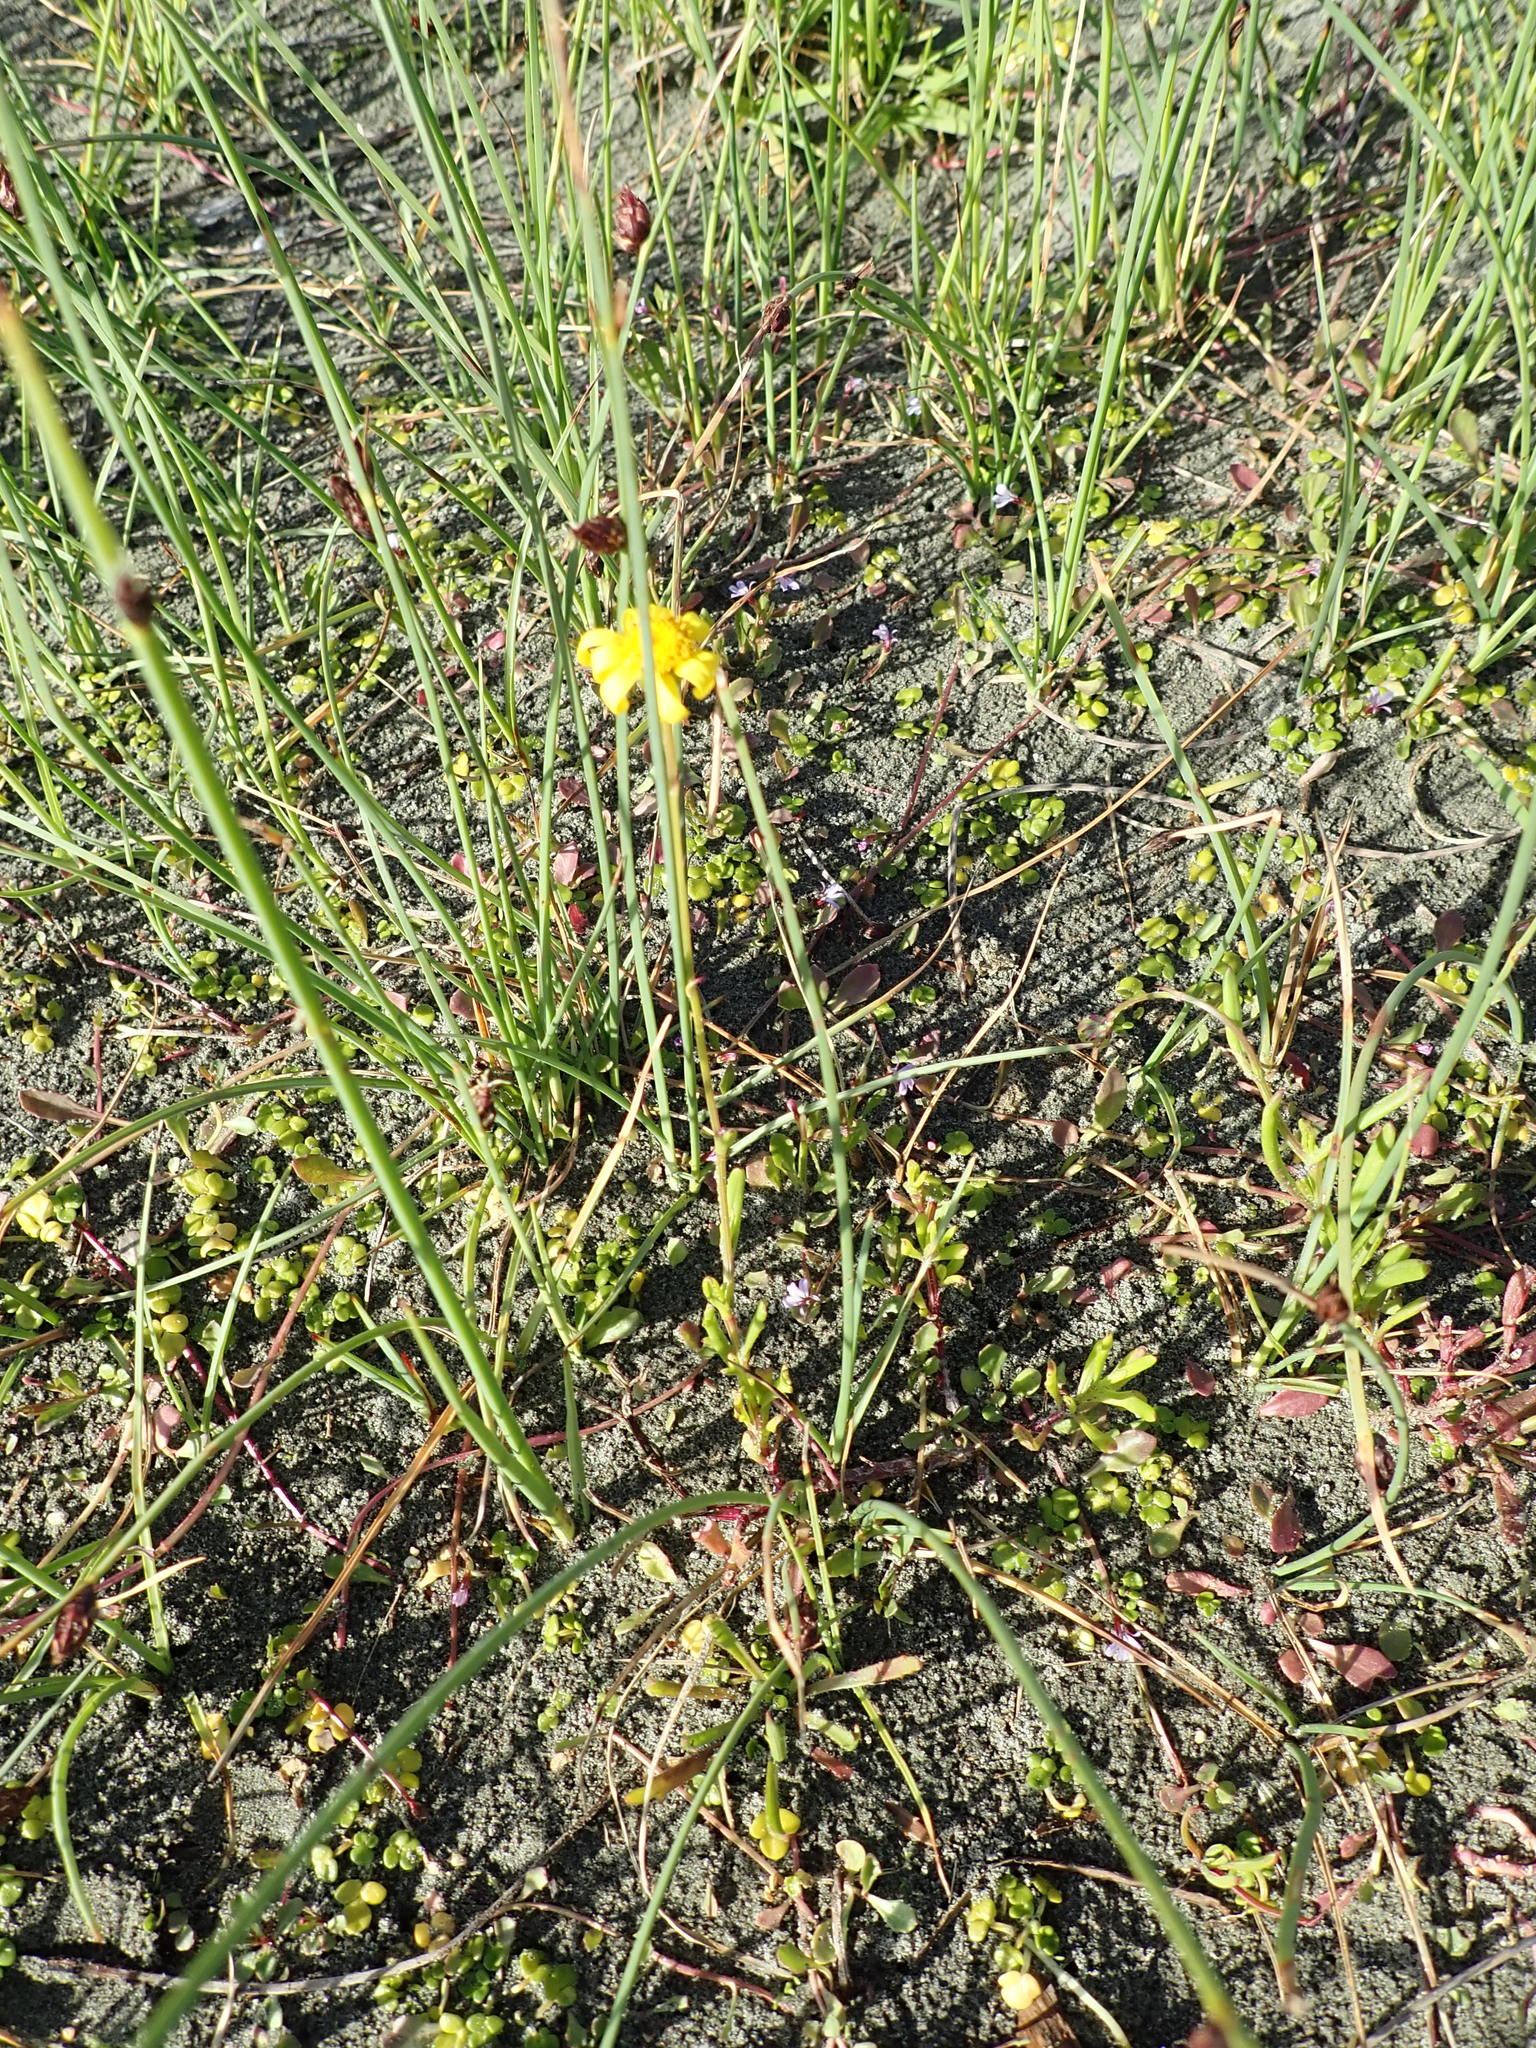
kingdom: Plantae
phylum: Tracheophyta
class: Magnoliopsida
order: Asterales
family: Asteraceae
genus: Senecio
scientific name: Senecio skirrhodon
